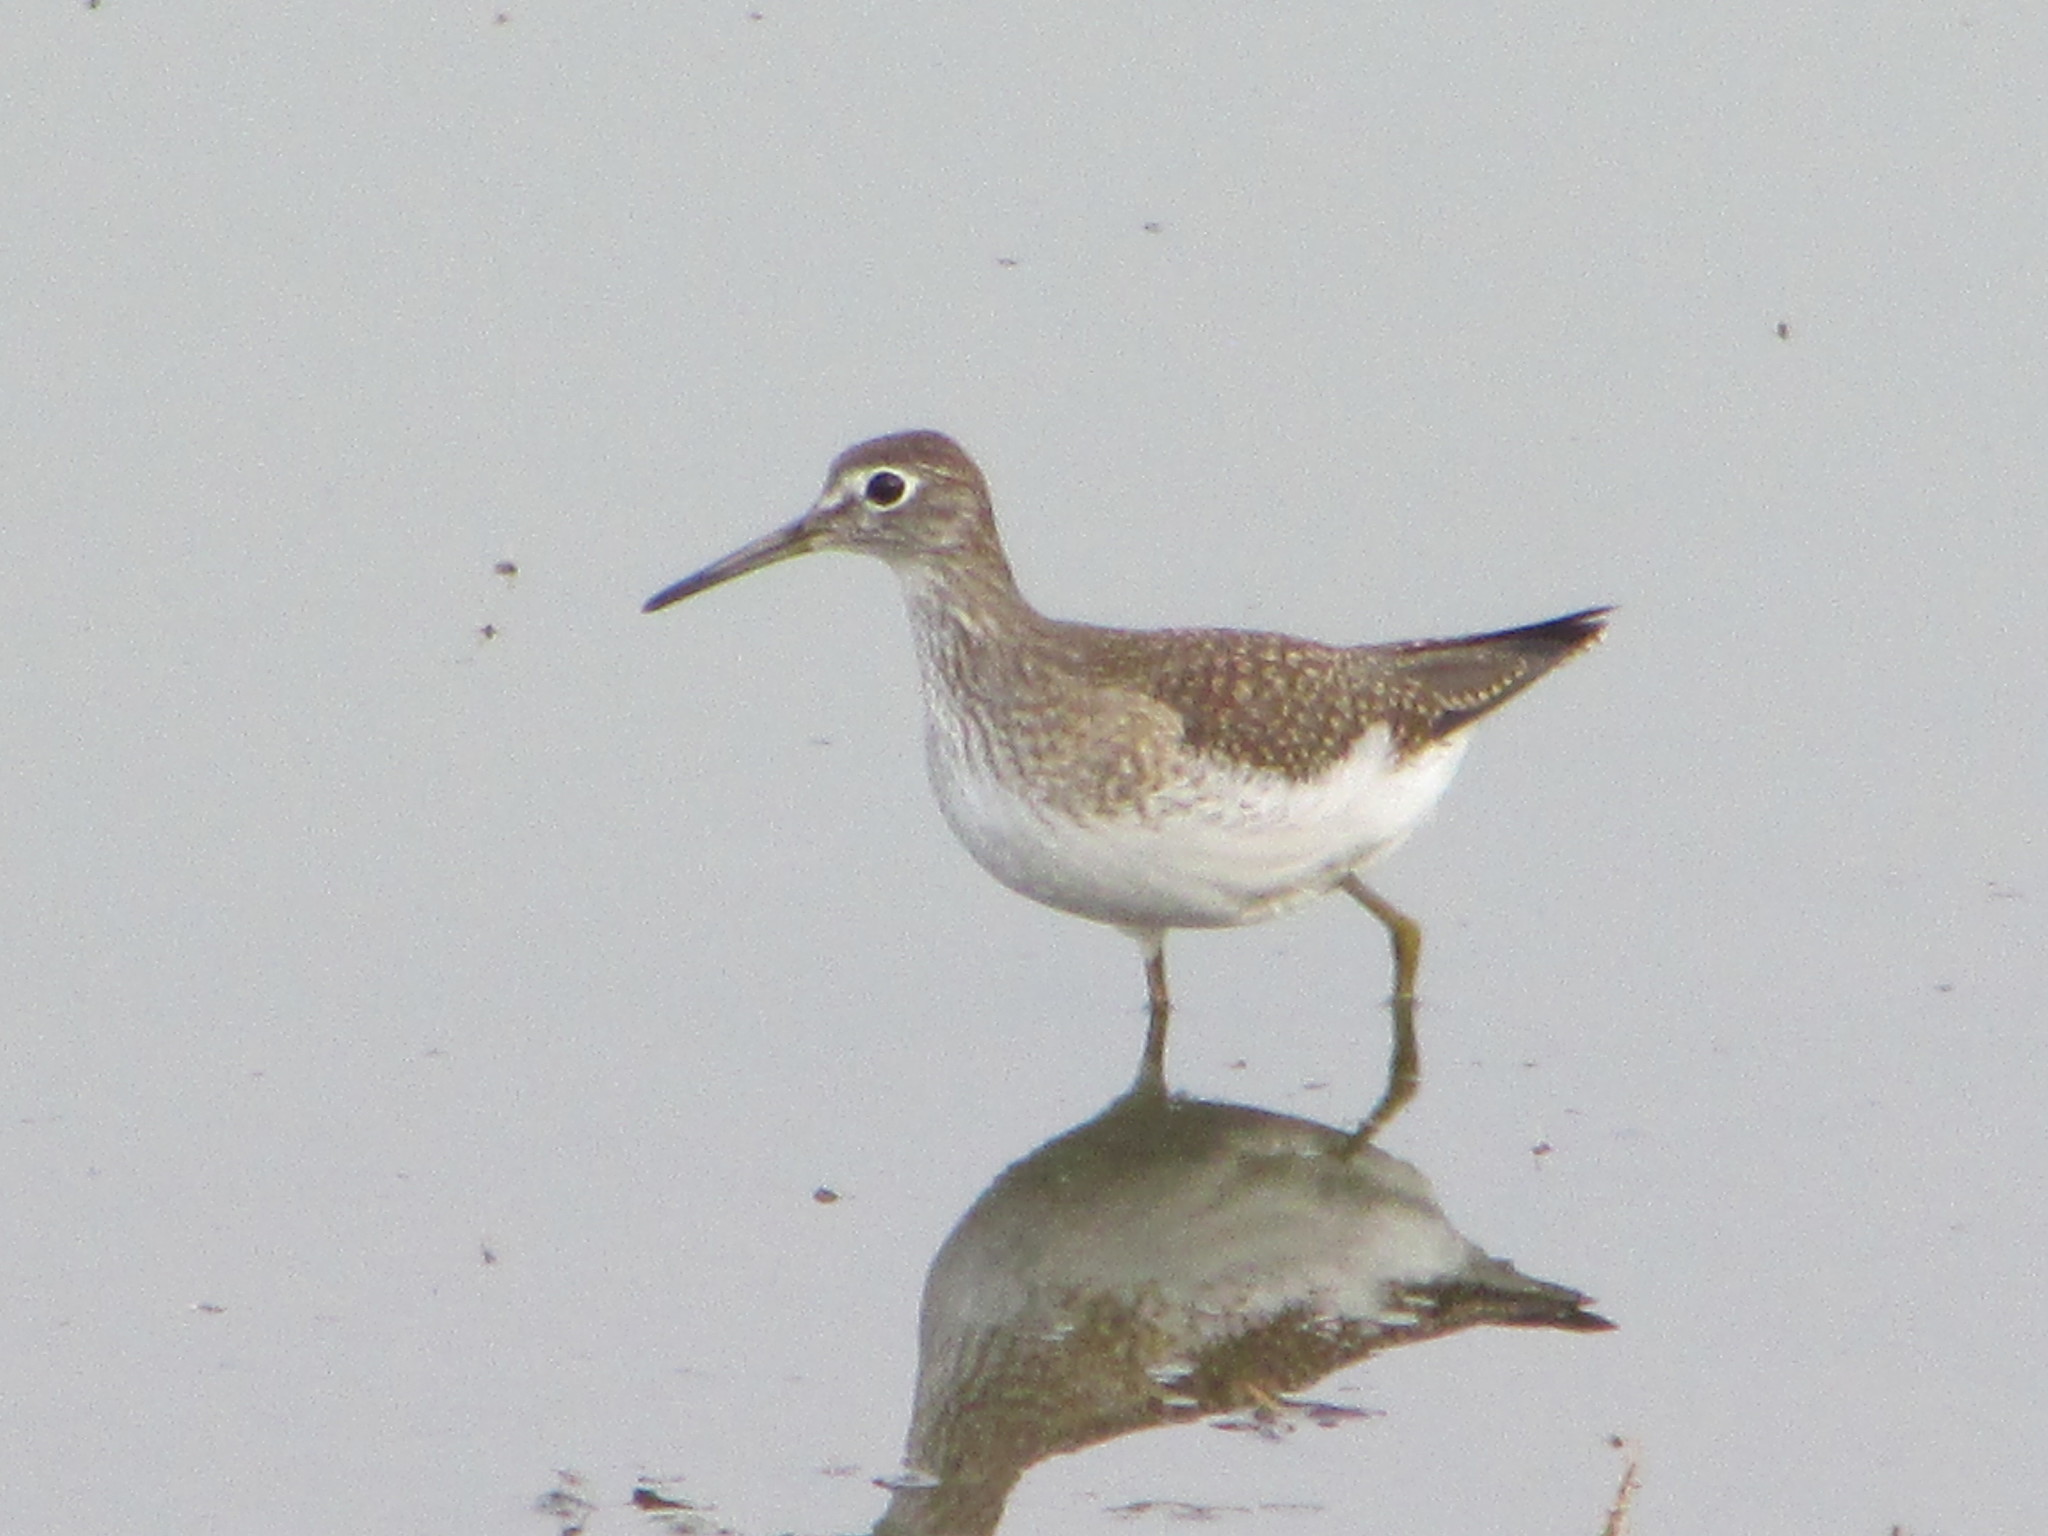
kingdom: Animalia
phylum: Chordata
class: Aves
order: Charadriiformes
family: Scolopacidae
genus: Tringa
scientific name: Tringa solitaria
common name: Solitary sandpiper
